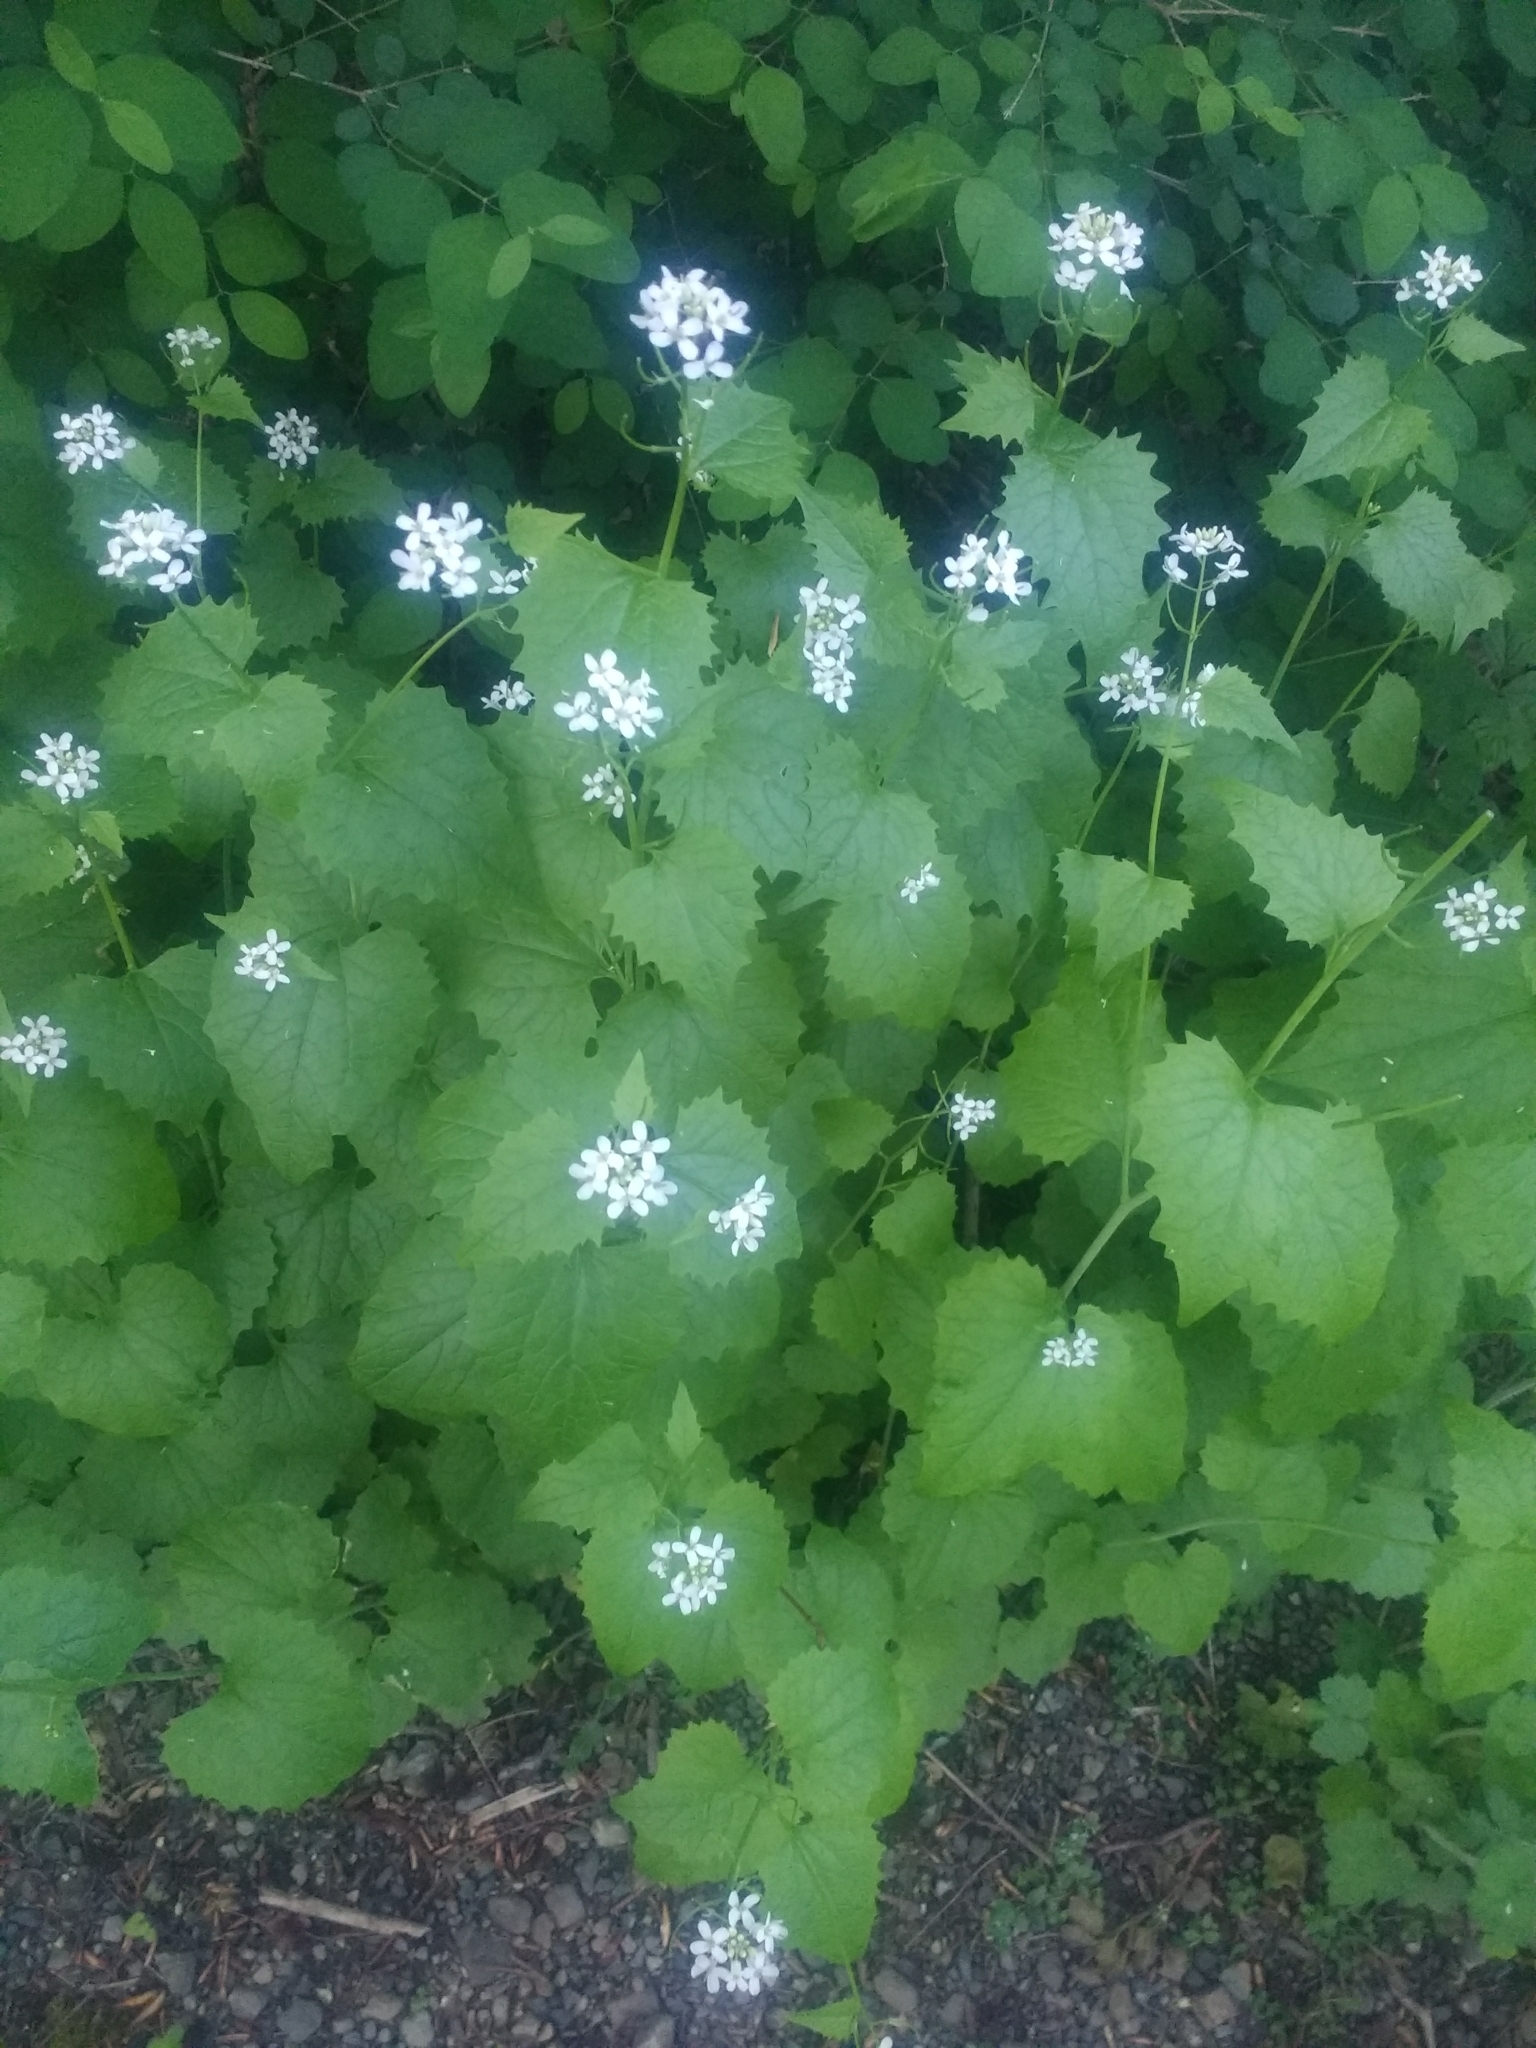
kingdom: Plantae
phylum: Tracheophyta
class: Magnoliopsida
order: Brassicales
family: Brassicaceae
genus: Alliaria
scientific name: Alliaria petiolata
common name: Garlic mustard
